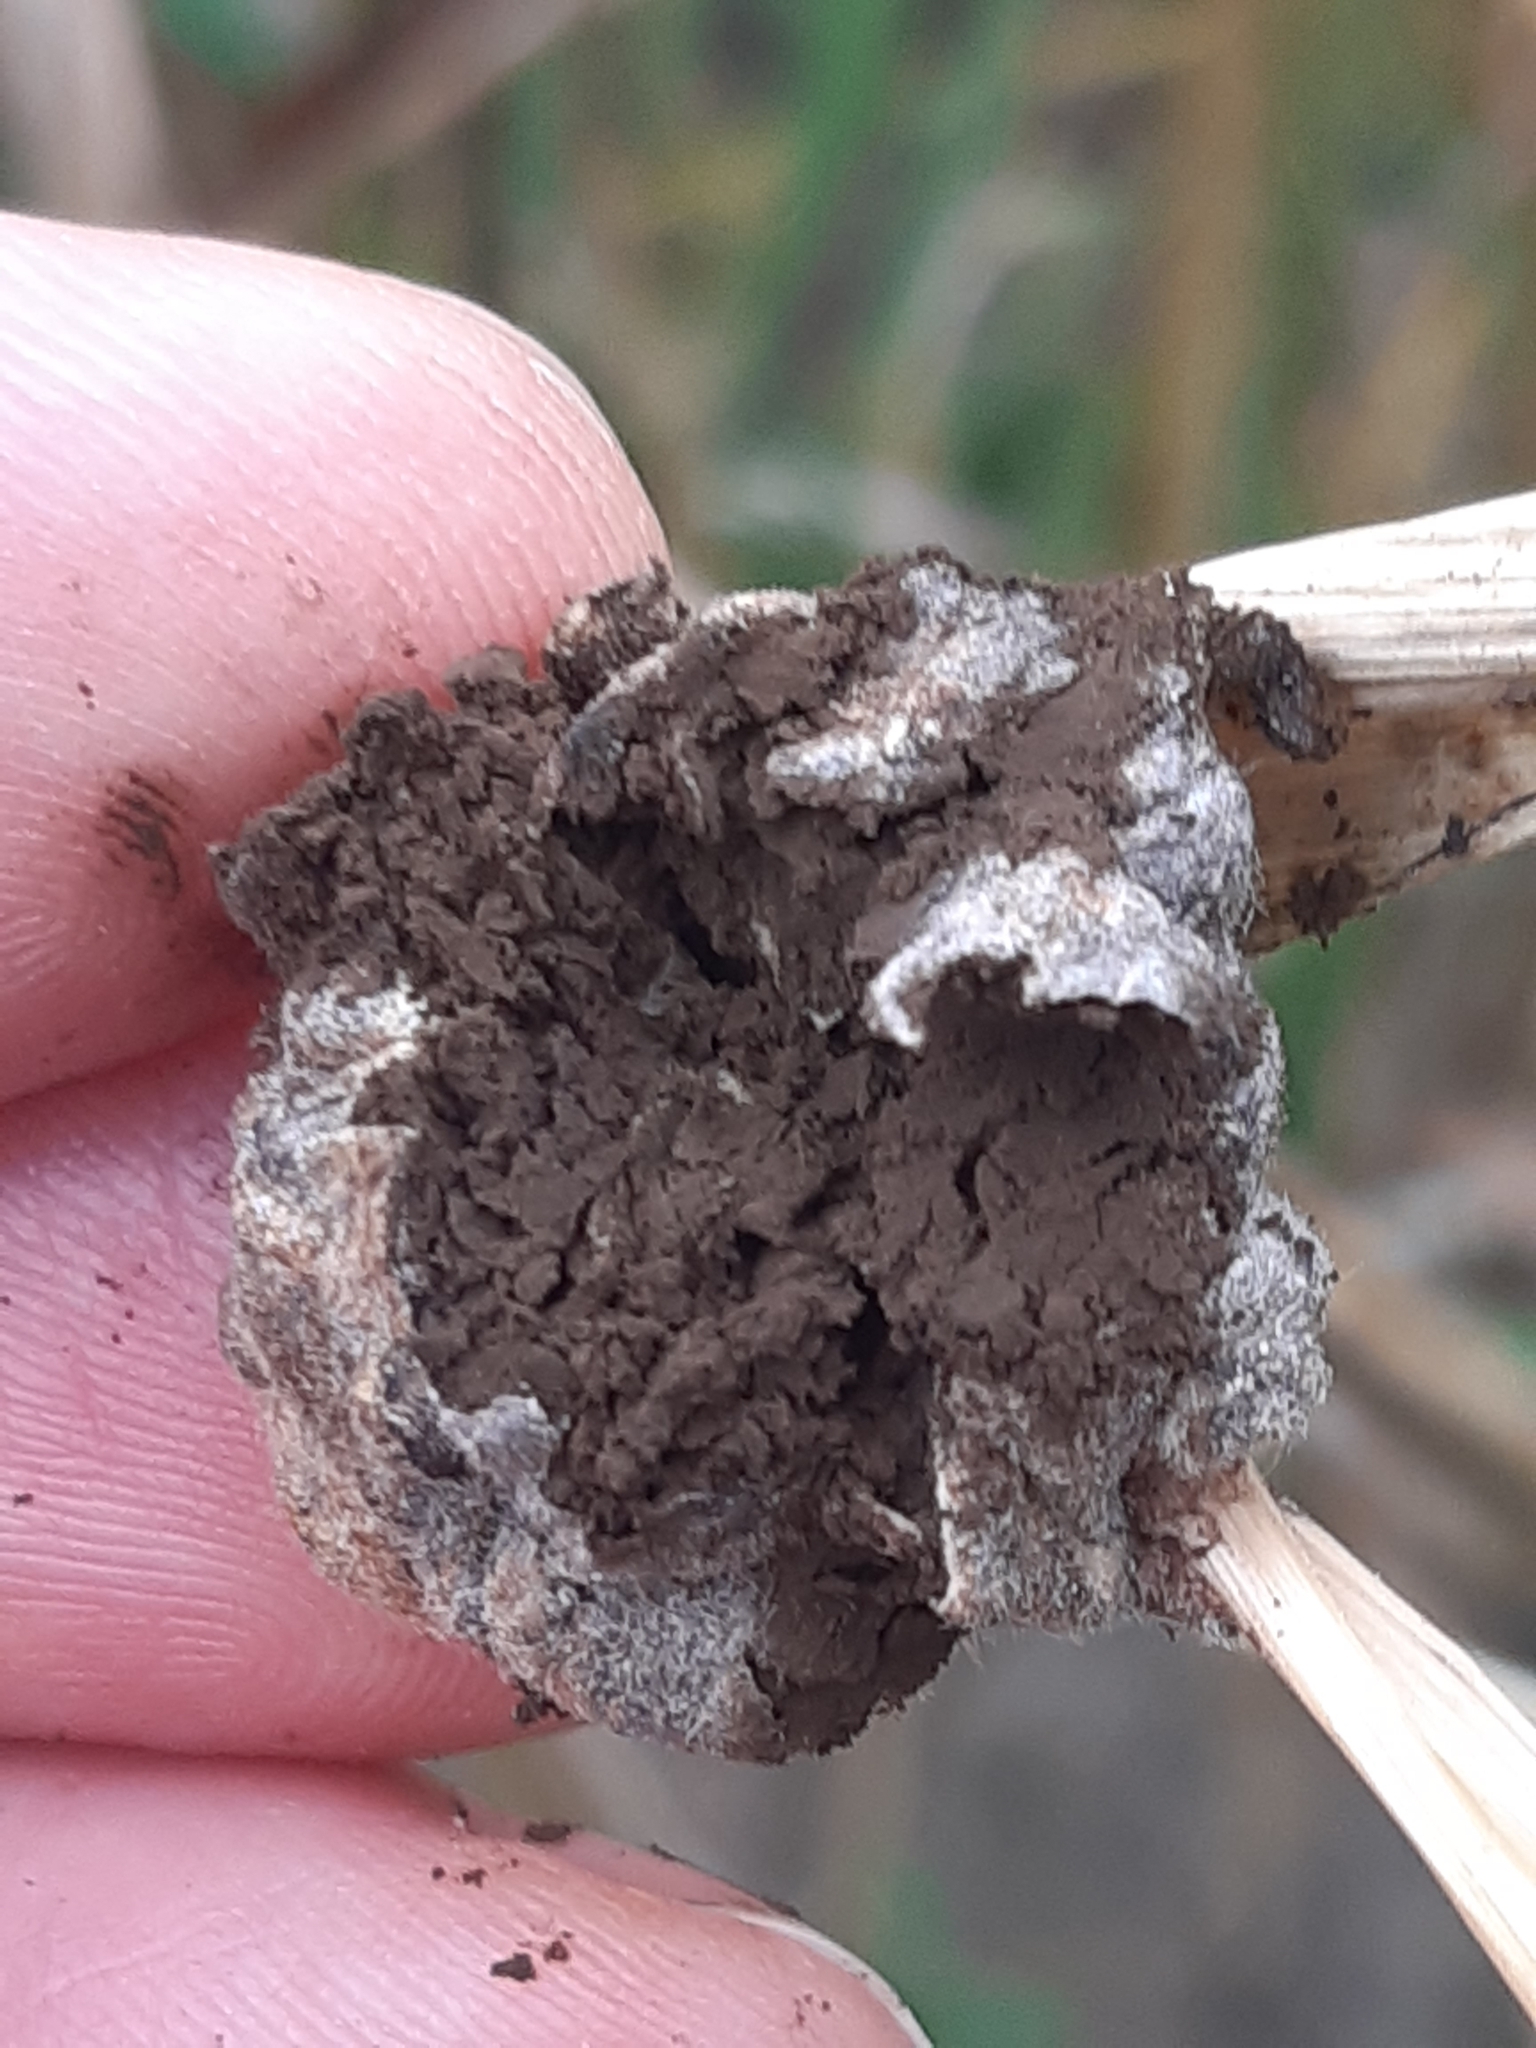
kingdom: Fungi
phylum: Basidiomycota
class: Ustilaginomycetes
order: Ustilaginales
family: Ustilaginaceae
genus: Ustilago
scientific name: Ustilago trichophora
